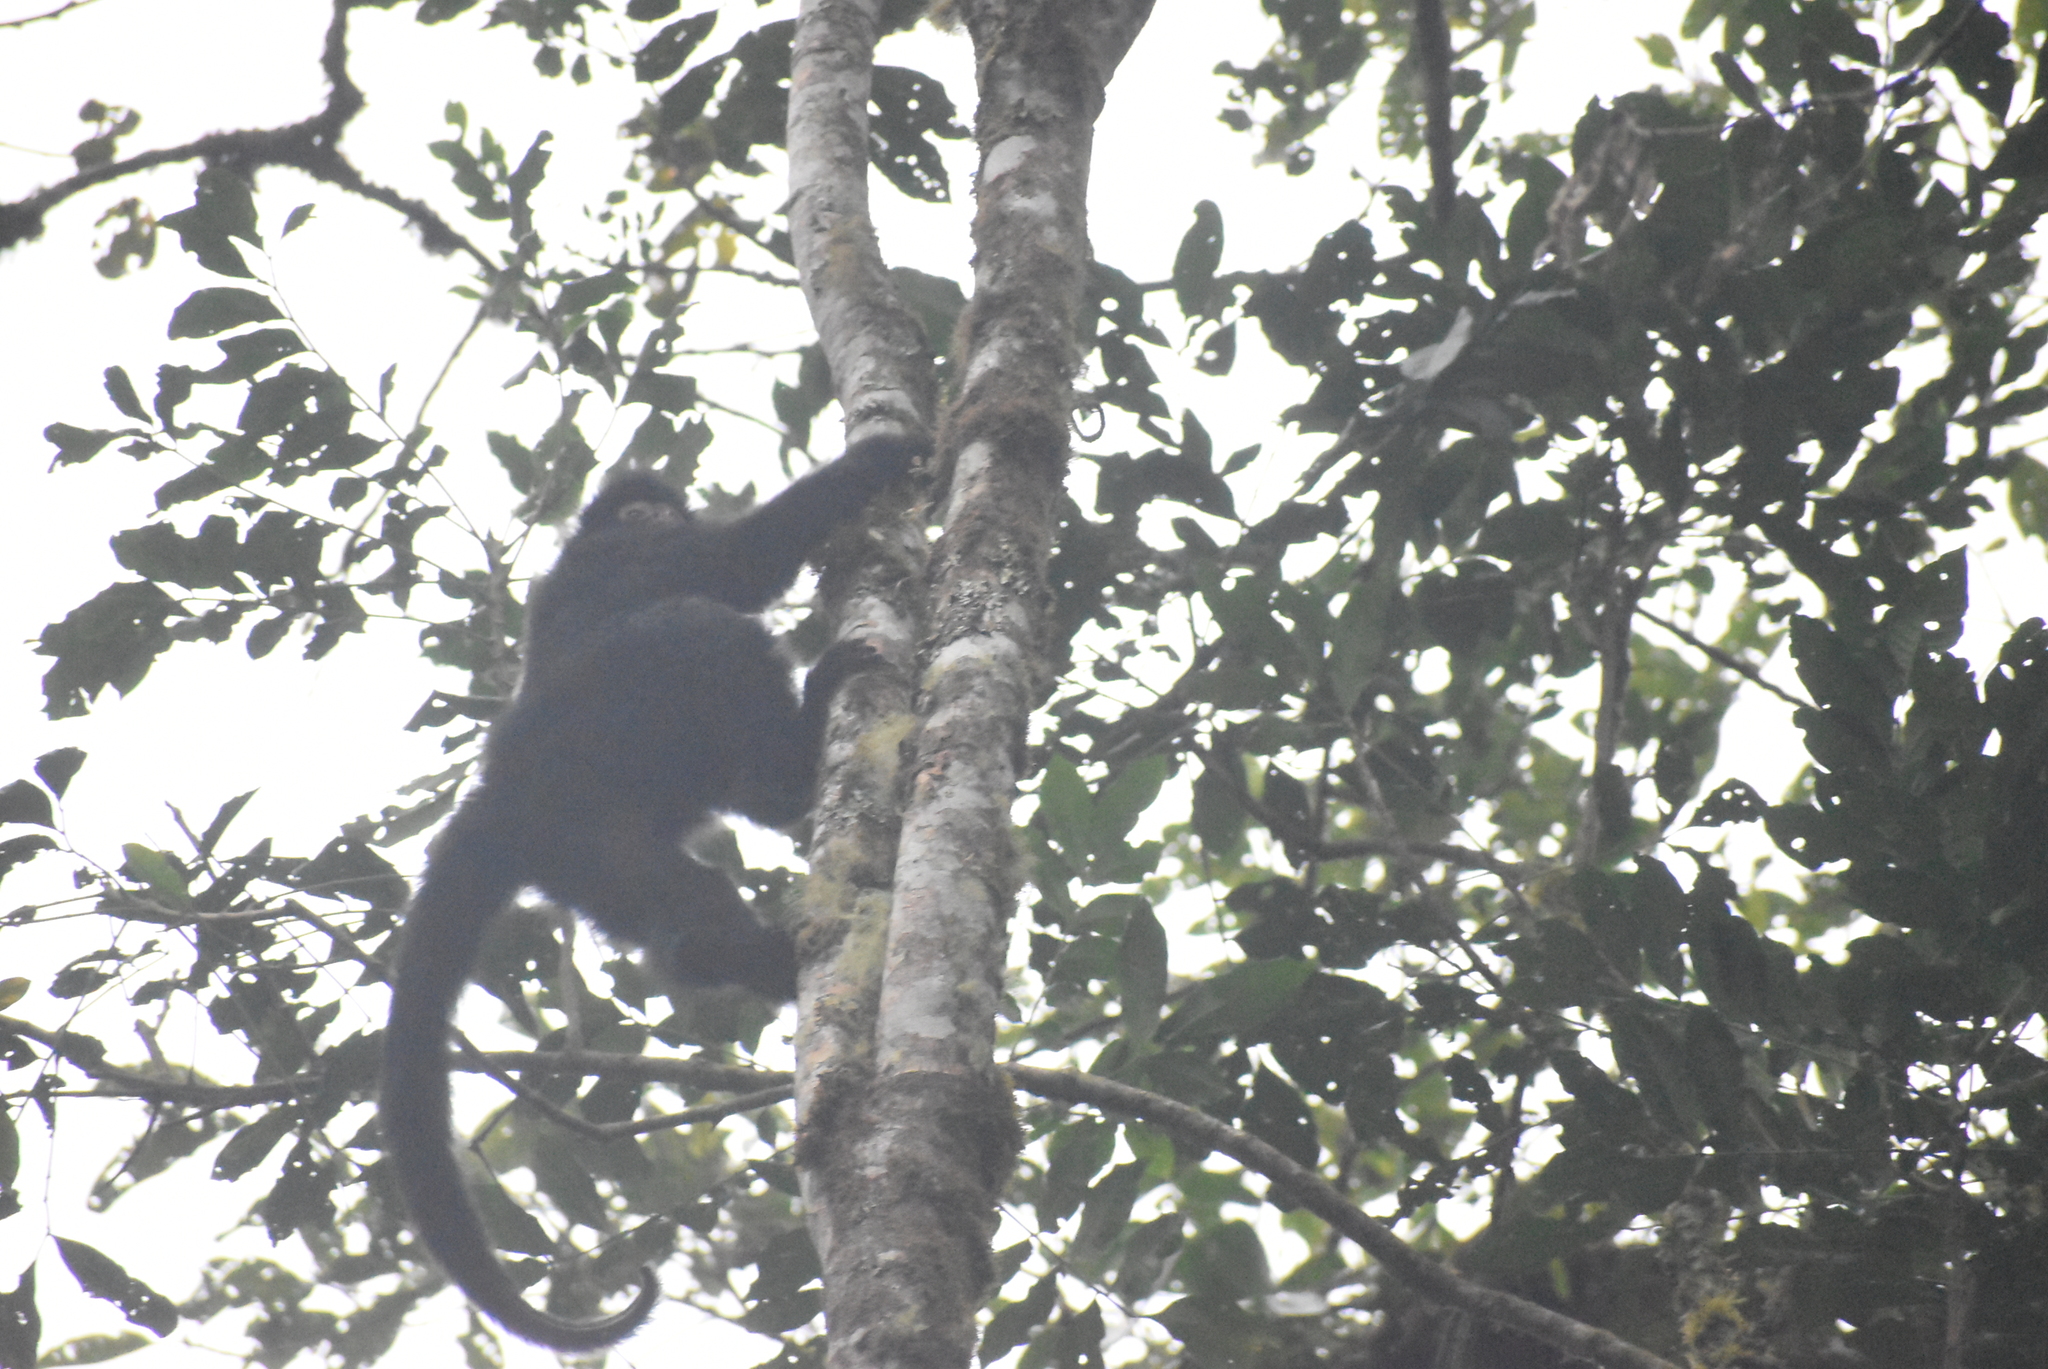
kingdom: Animalia
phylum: Chordata
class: Mammalia
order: Primates
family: Atelidae
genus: Ateles
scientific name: Ateles chamek
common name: Peruvian spider monkey
